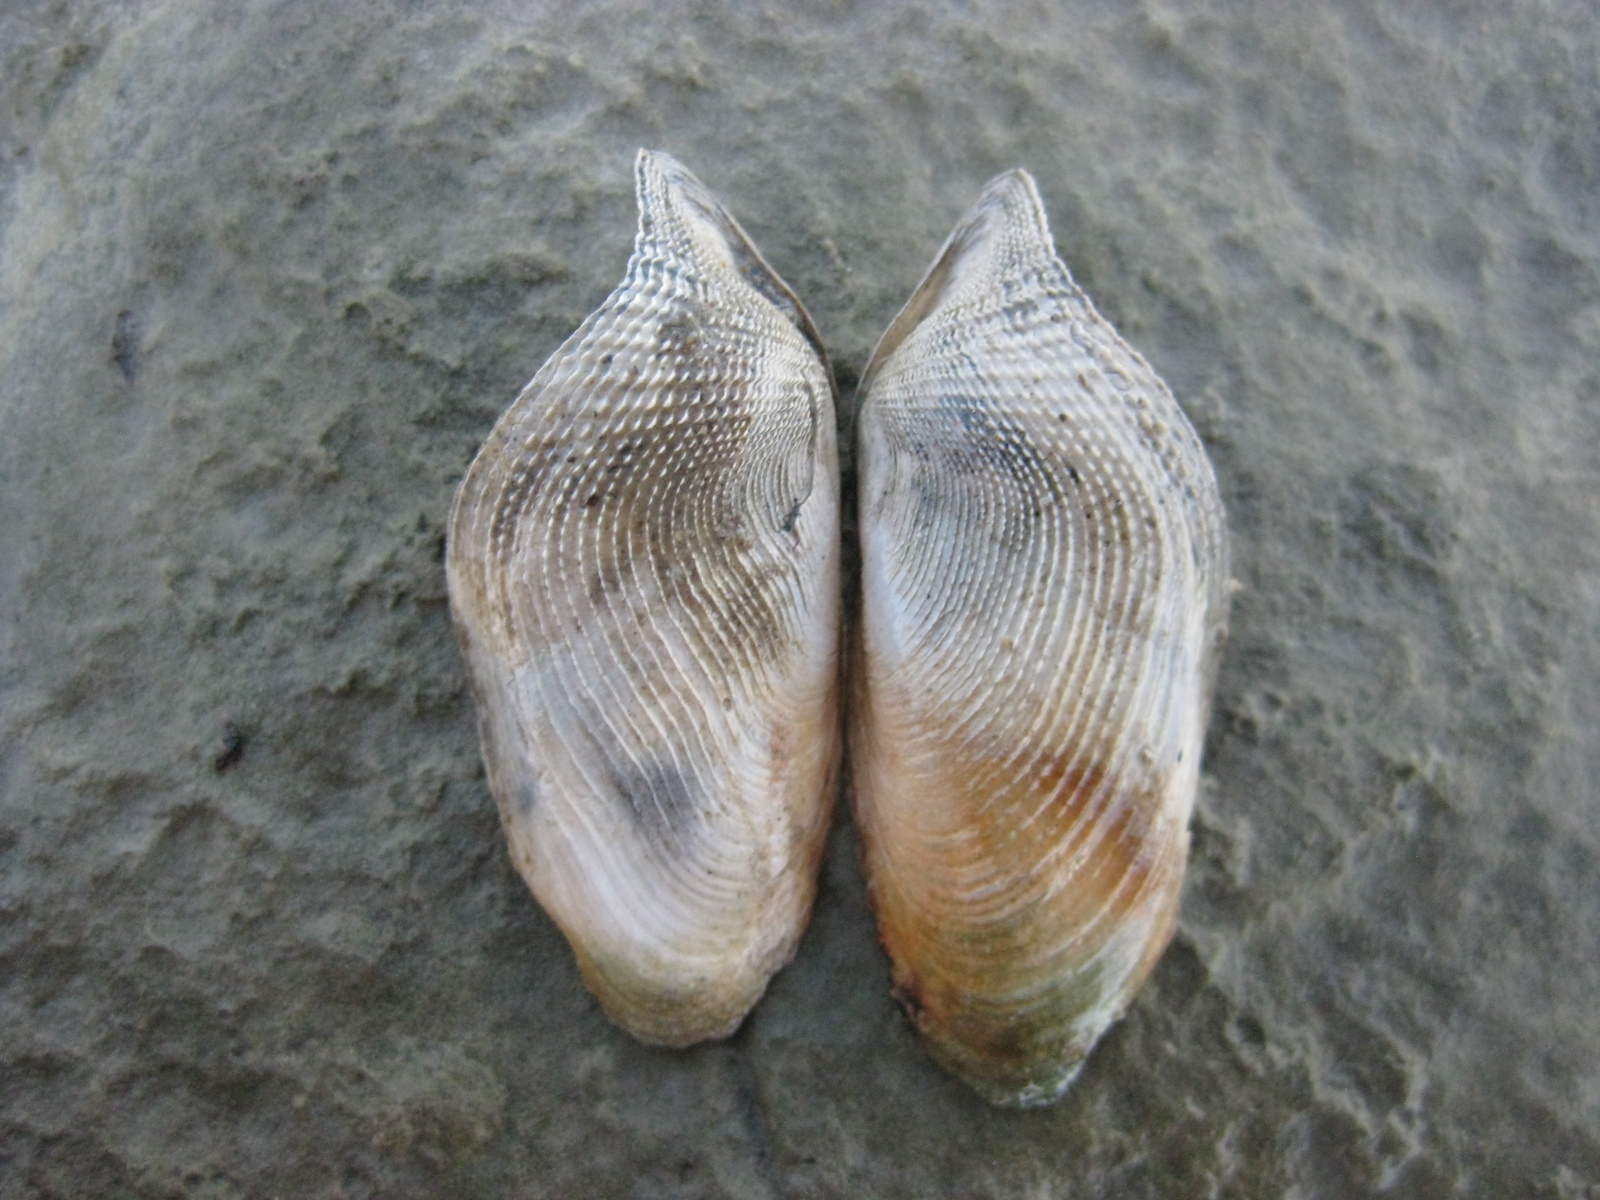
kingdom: Animalia
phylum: Mollusca
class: Bivalvia
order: Myida
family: Pholadidae
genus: Barnea
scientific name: Barnea similis
